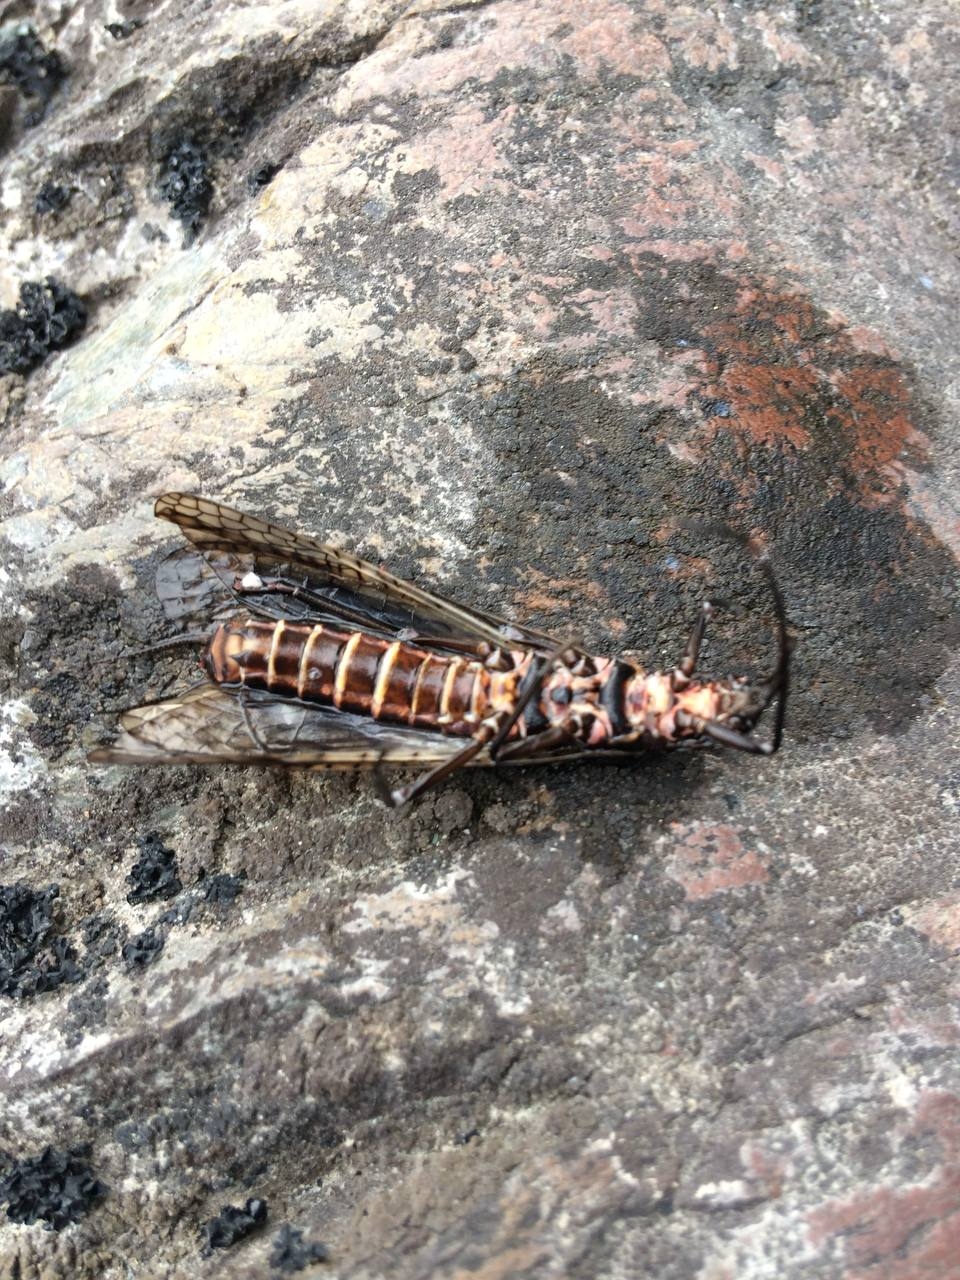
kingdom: Animalia
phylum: Arthropoda
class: Insecta
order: Plecoptera
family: Pteronarcyidae
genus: Pteronarcys
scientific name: Pteronarcys reticulata
